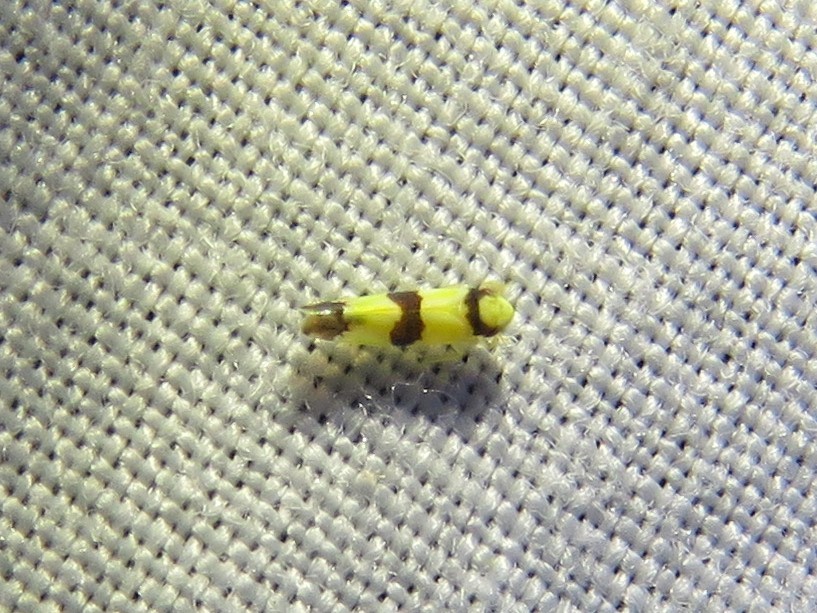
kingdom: Animalia
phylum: Arthropoda
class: Insecta
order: Hemiptera
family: Cicadellidae
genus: Erythroneura
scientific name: Erythroneura calycula
